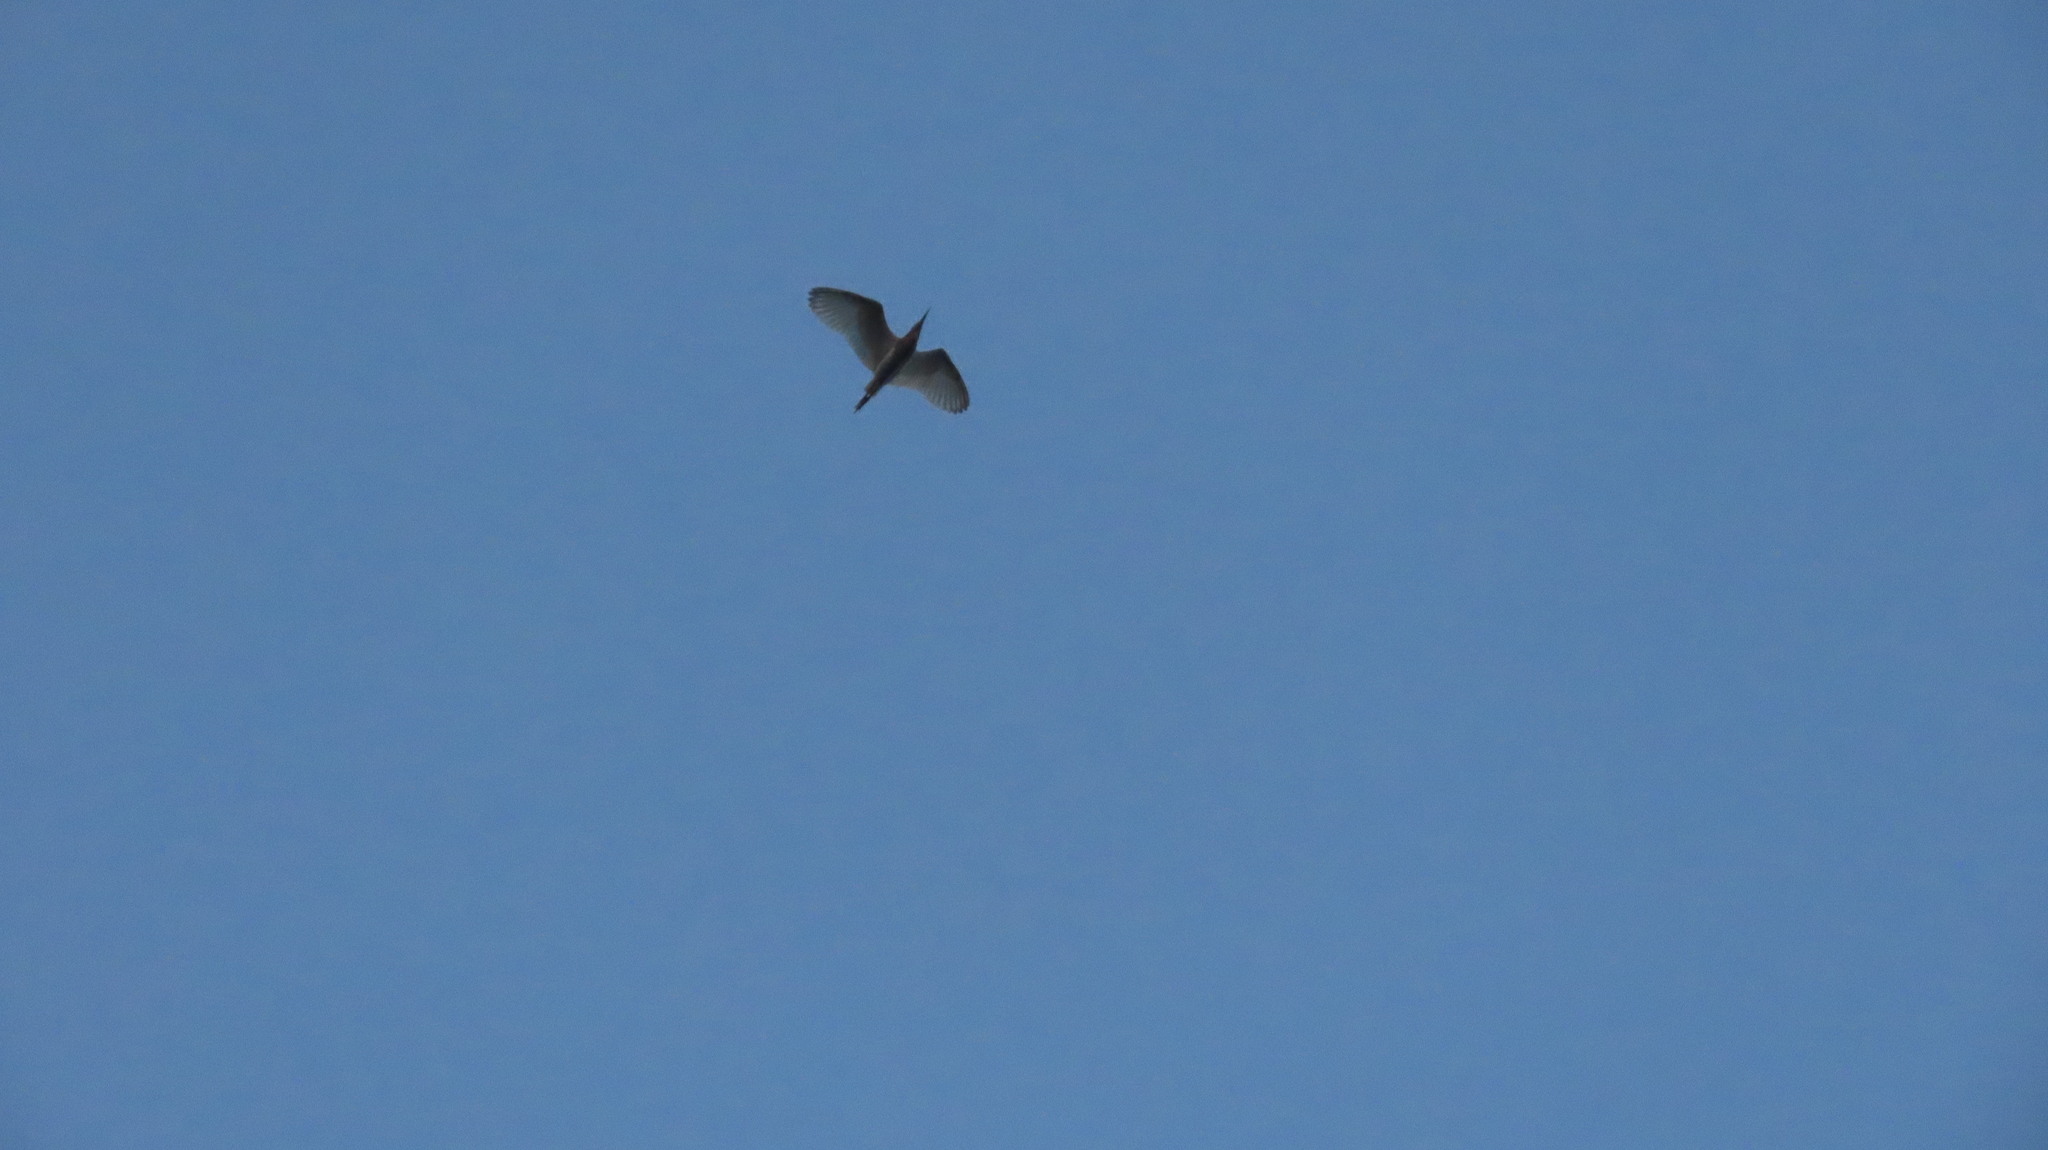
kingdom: Animalia
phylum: Chordata
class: Aves
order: Pelecaniformes
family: Ardeidae
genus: Ardeola
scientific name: Ardeola grayii
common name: Indian pond heron
